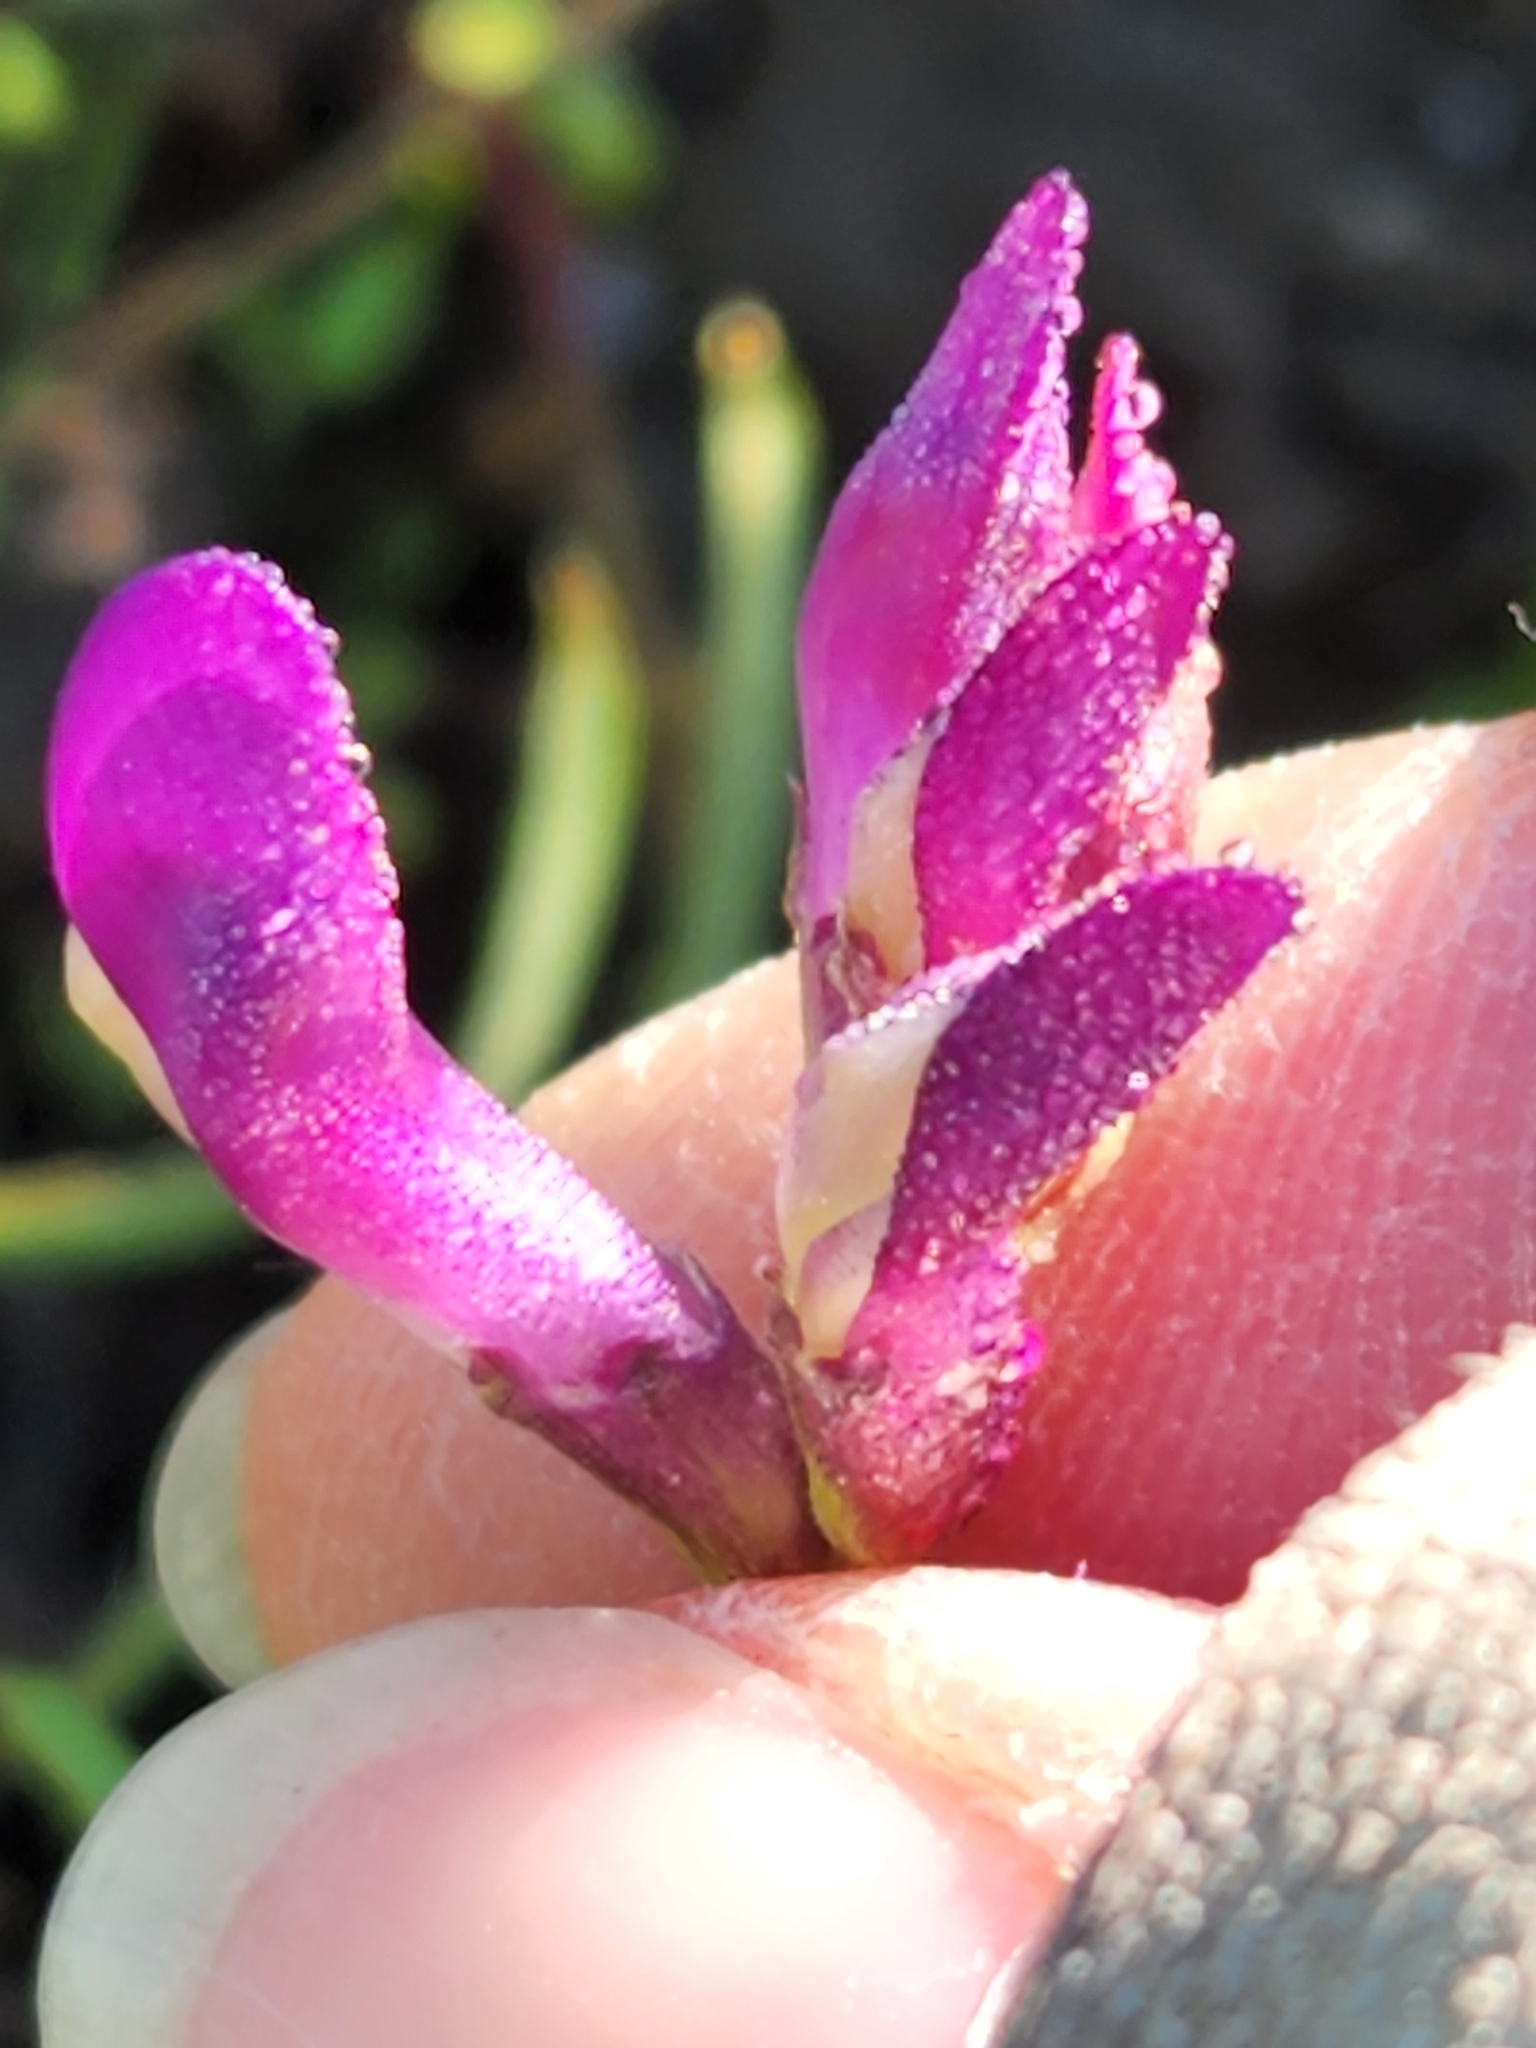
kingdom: Plantae
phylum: Tracheophyta
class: Magnoliopsida
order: Fabales
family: Fabaceae
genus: Vicia
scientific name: Vicia americana
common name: American vetch
